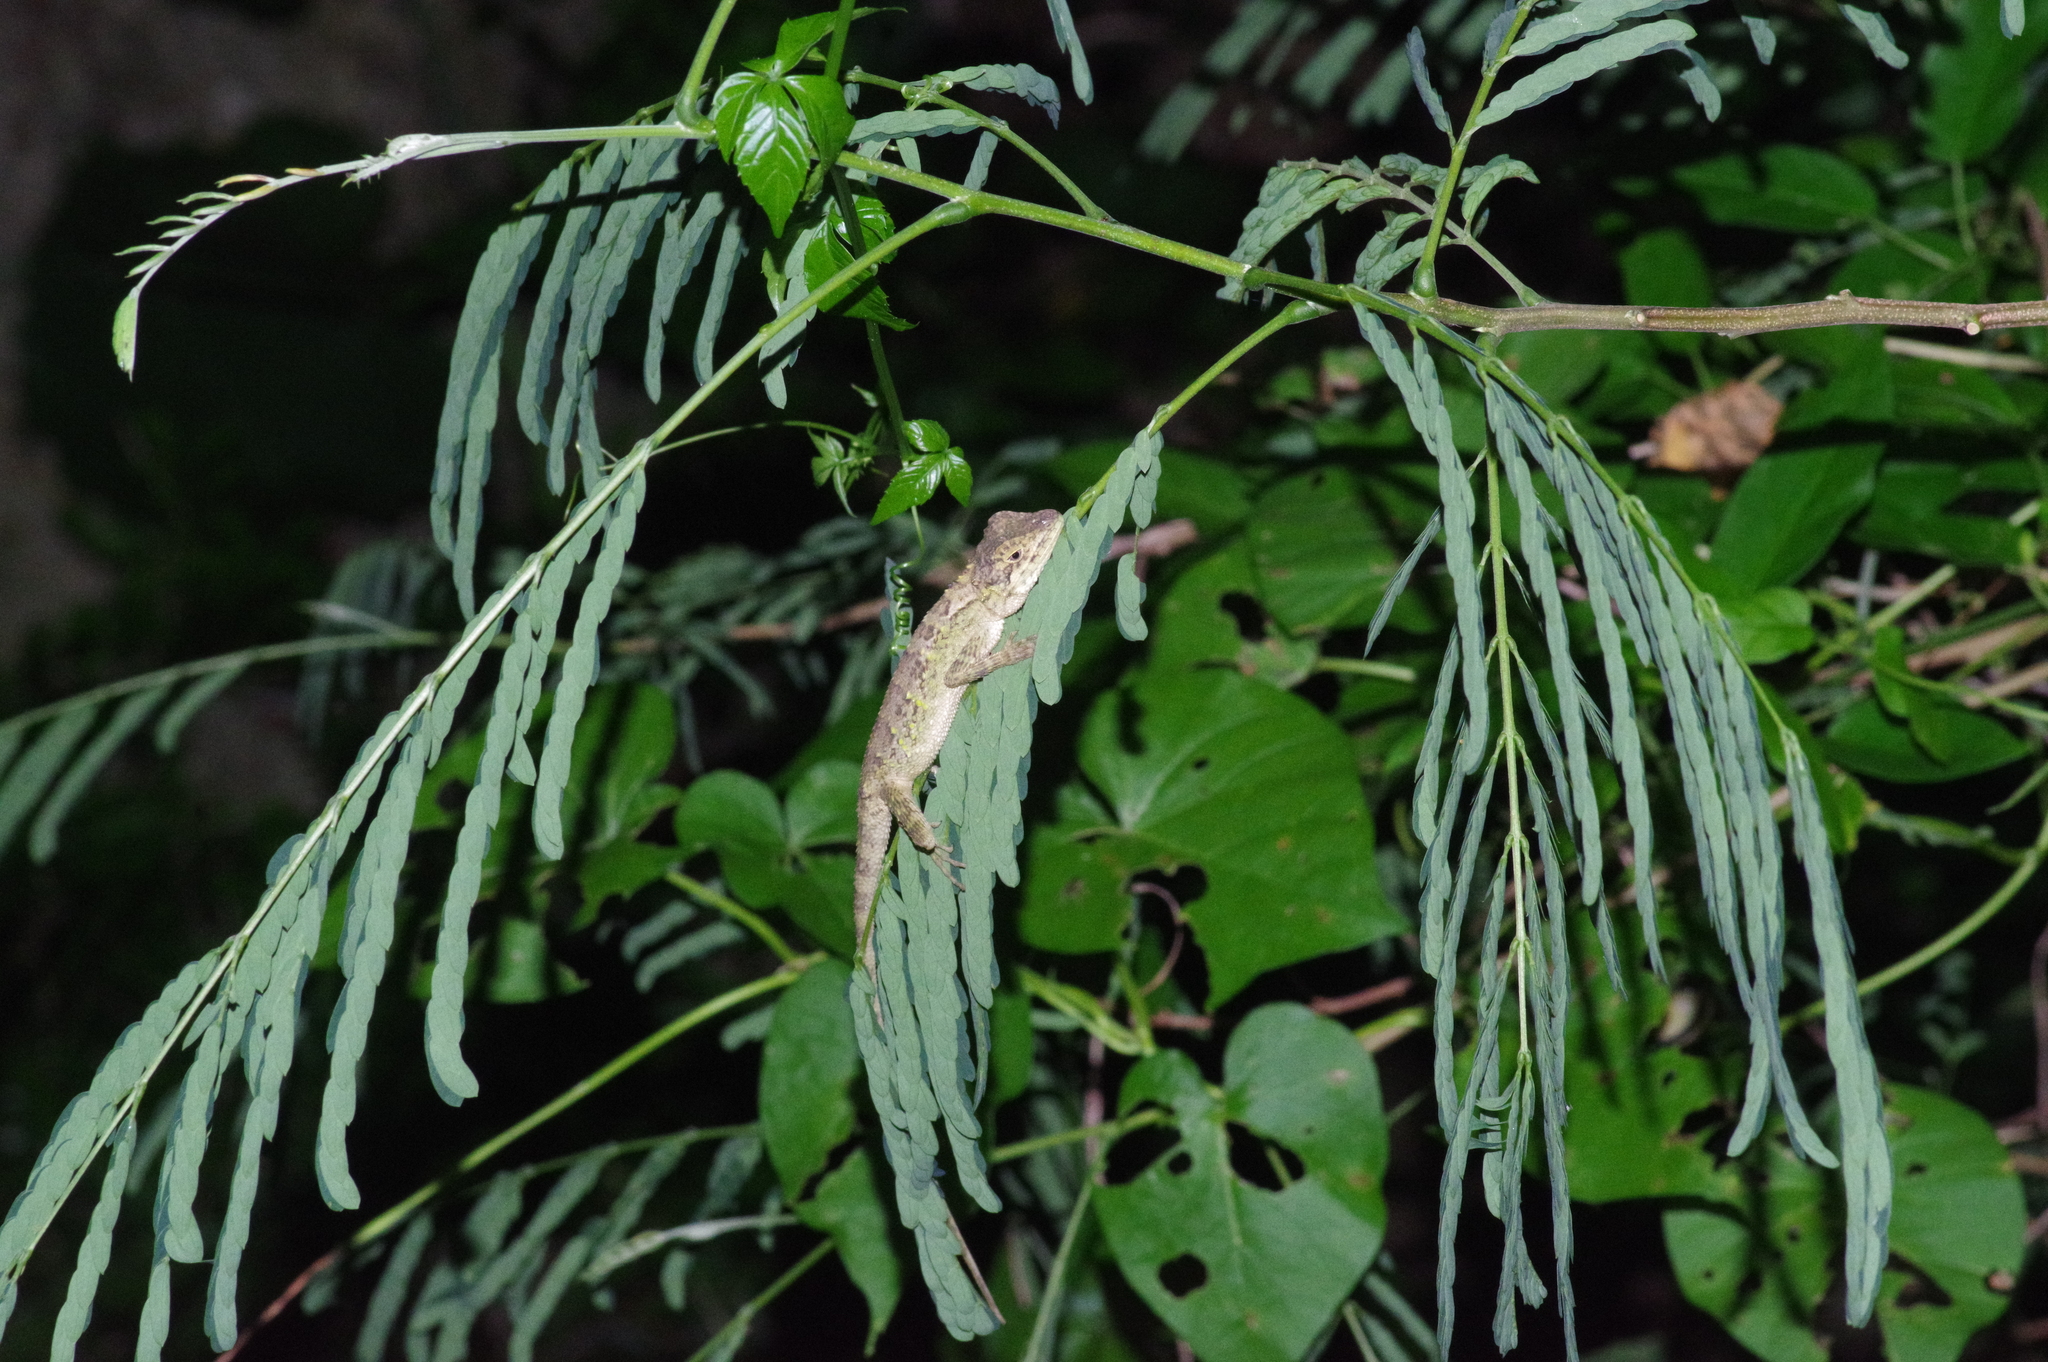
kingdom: Fungi
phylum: Basidiomycota
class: Agaricomycetes
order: Boletales
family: Diplocystidiaceae
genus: Diploderma
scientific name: Diploderma polygonatum
